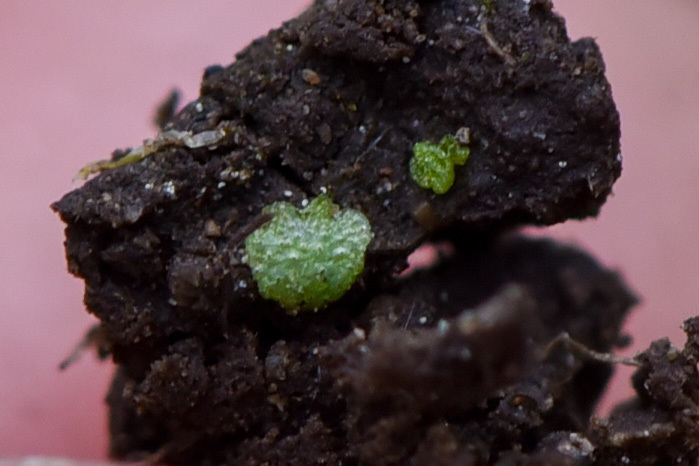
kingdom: Plantae
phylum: Marchantiophyta
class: Marchantiopsida
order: Marchantiales
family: Ricciaceae
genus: Riccia
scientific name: Riccia cavernosa
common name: Cavernous crystalwort
